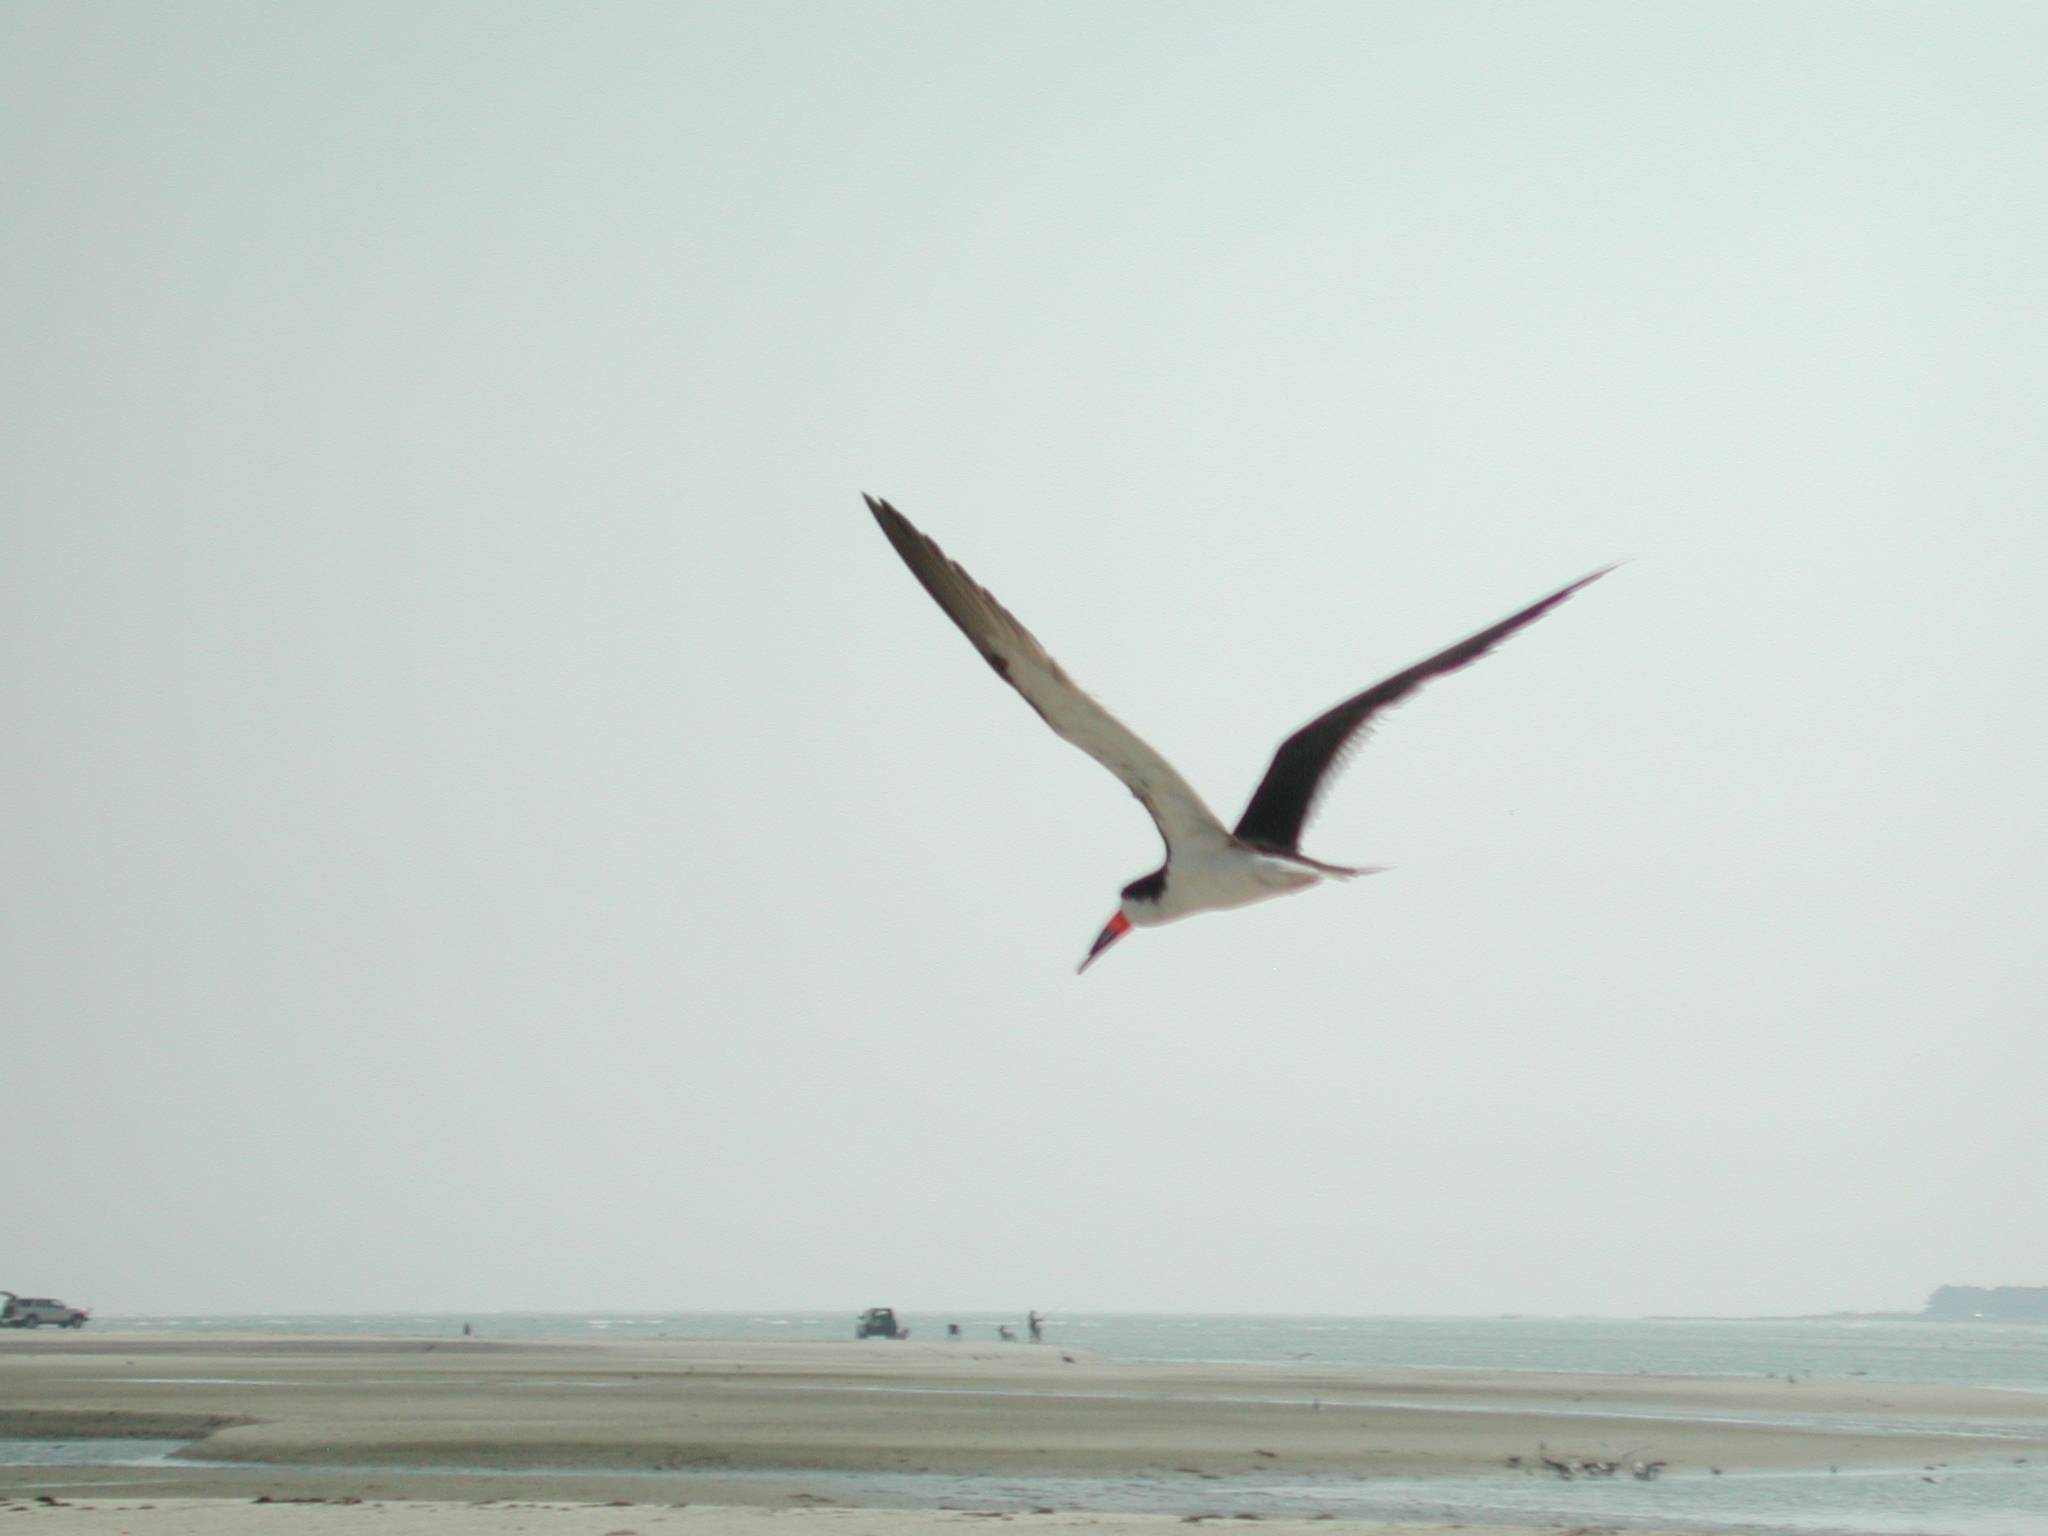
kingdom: Animalia
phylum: Chordata
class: Aves
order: Charadriiformes
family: Laridae
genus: Rynchops
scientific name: Rynchops niger
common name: Black skimmer
